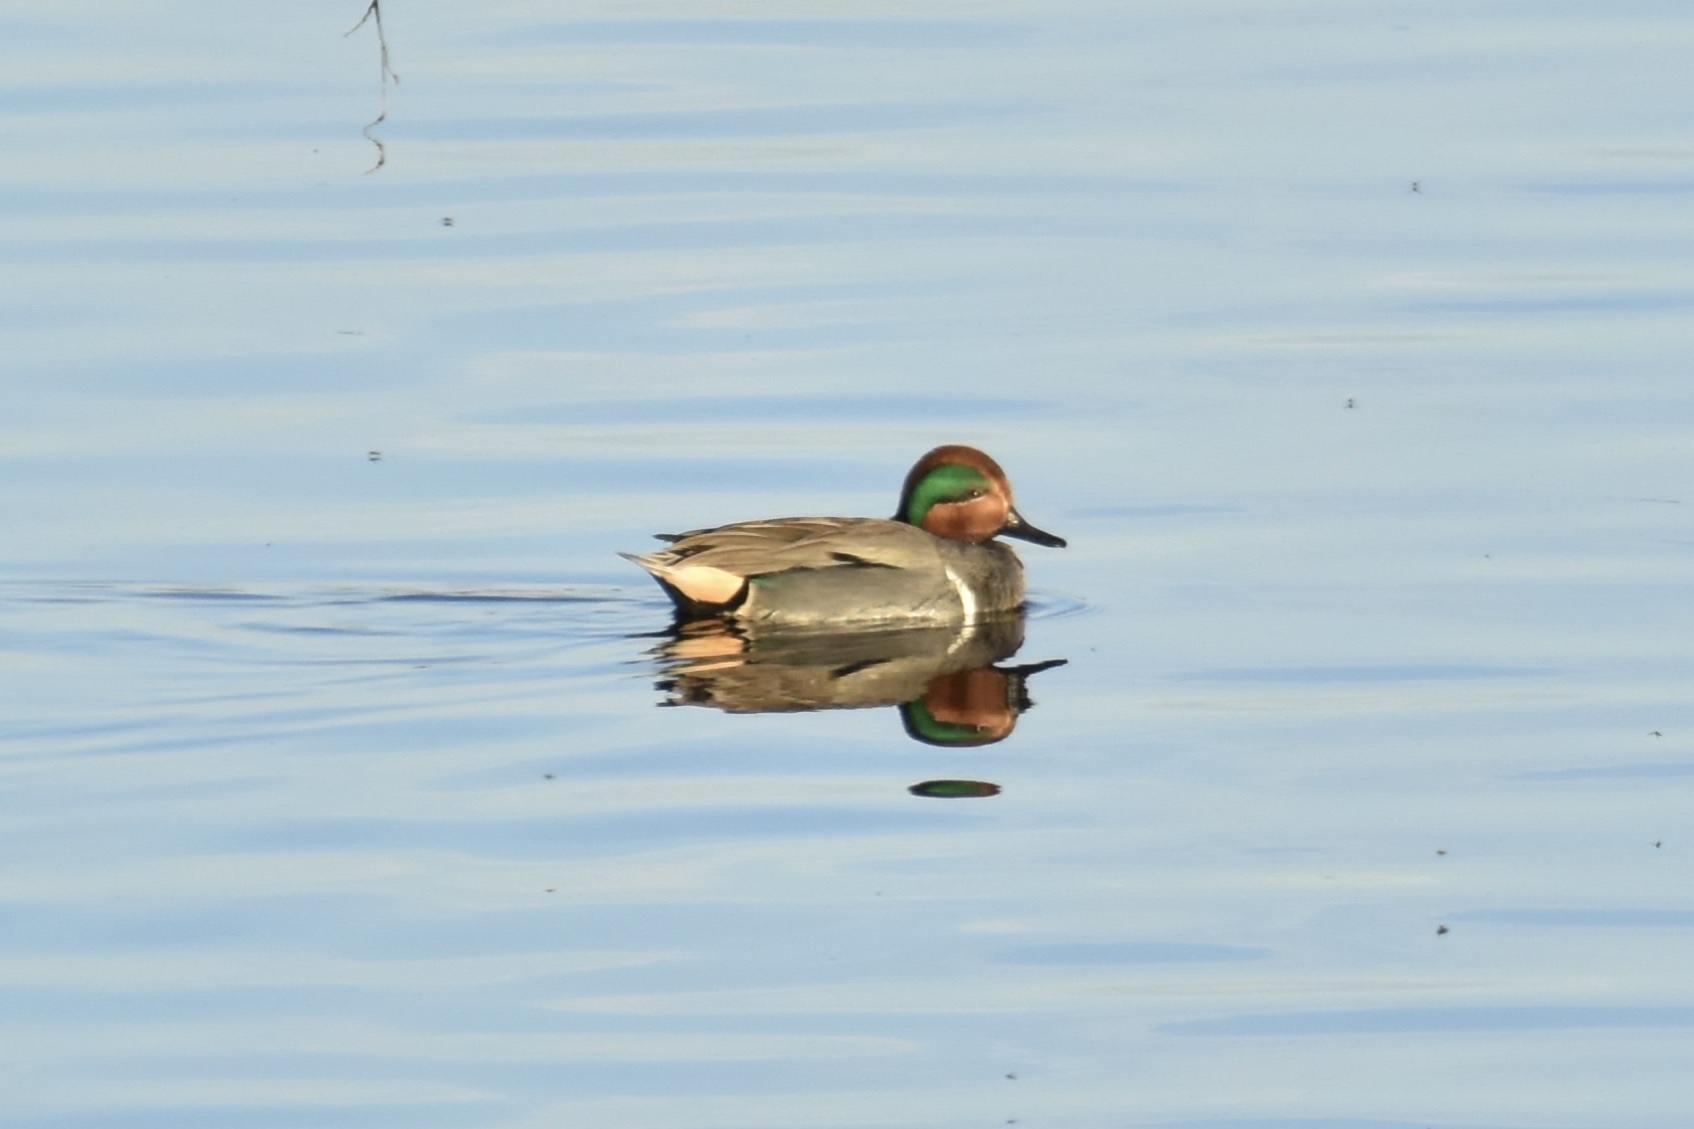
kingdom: Animalia
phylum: Chordata
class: Aves
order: Anseriformes
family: Anatidae
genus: Anas
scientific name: Anas crecca
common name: Eurasian teal
